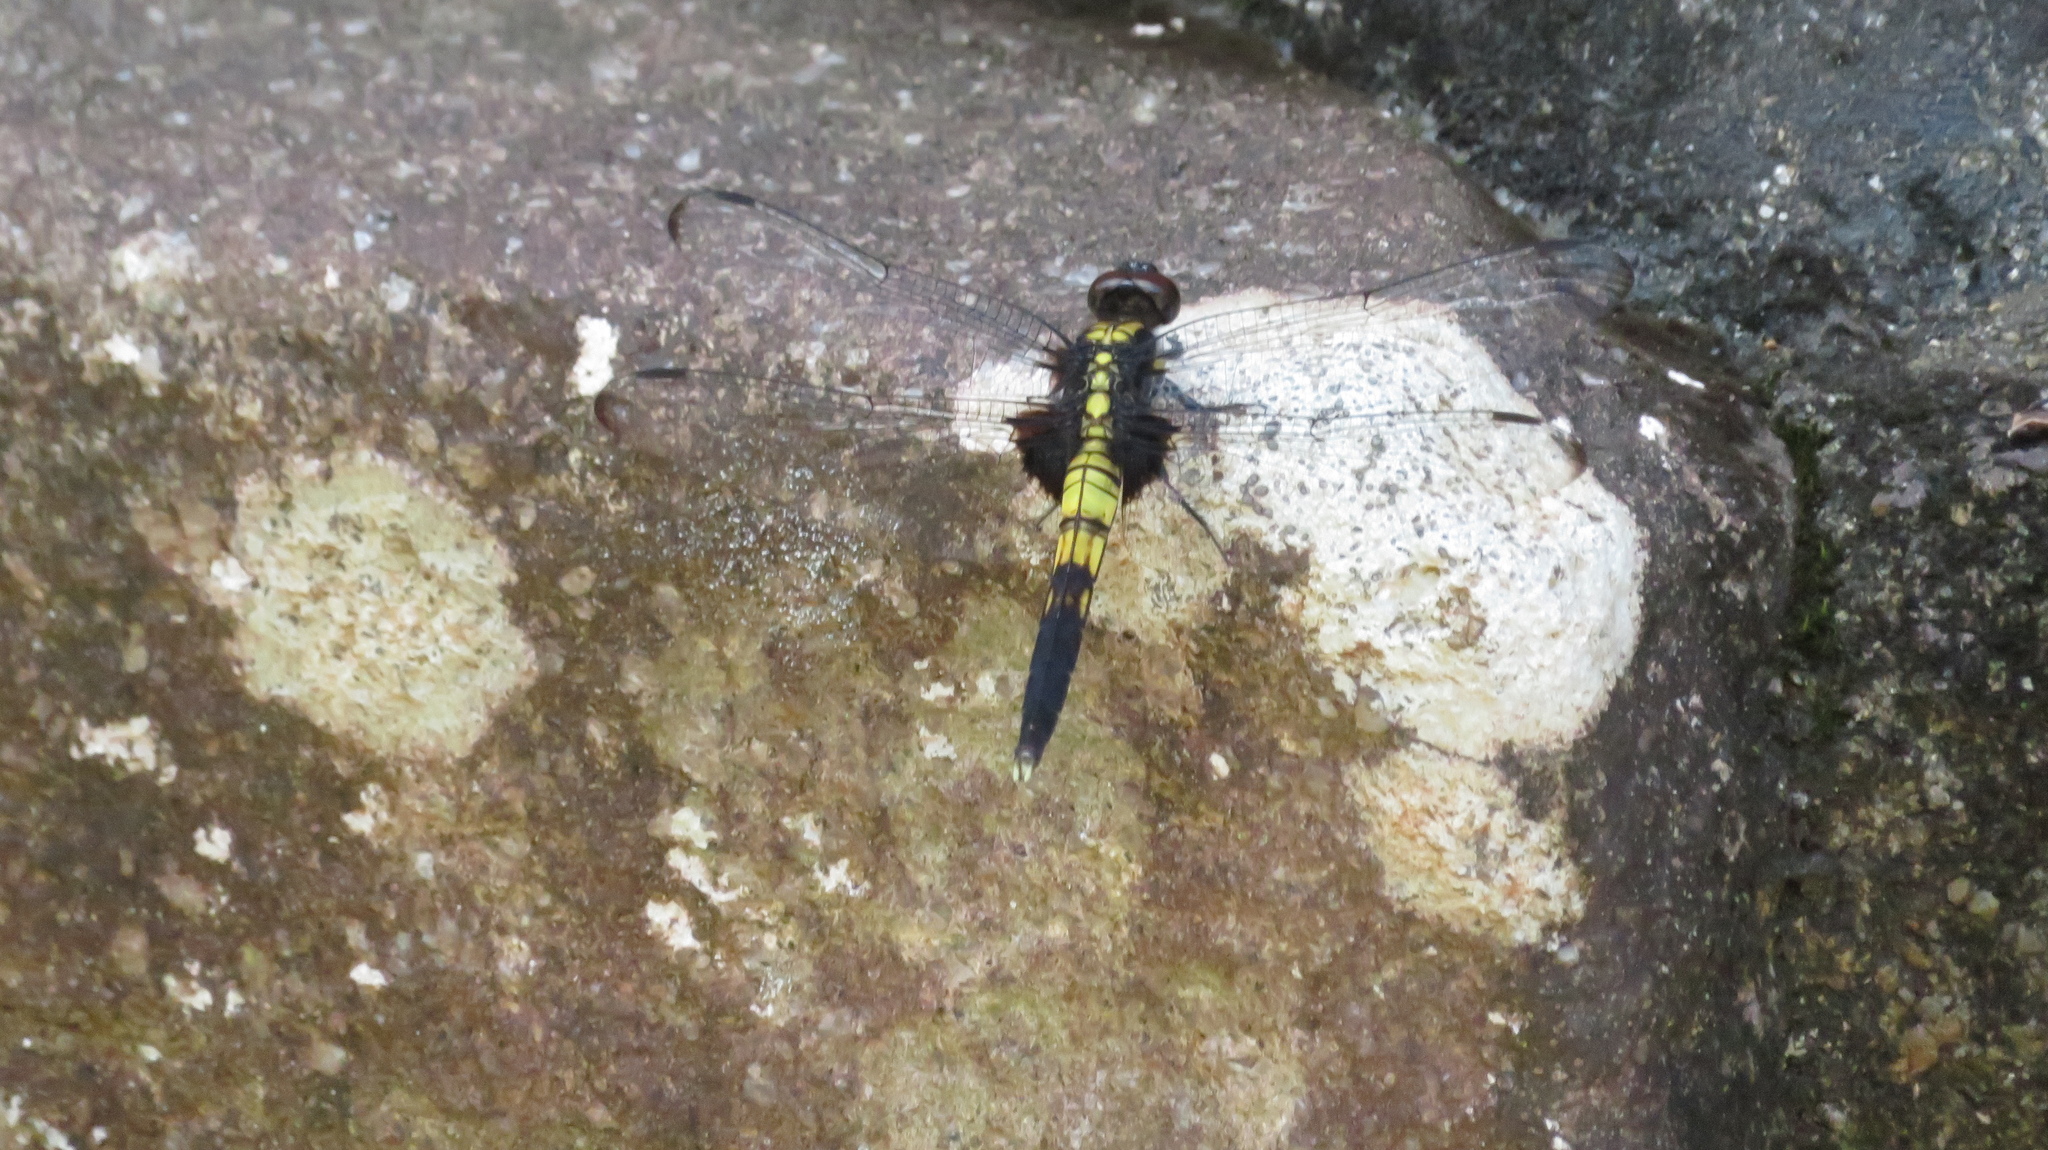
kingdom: Animalia
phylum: Arthropoda
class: Insecta
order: Odonata
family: Libellulidae
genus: Orthetrum
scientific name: Orthetrum melania
